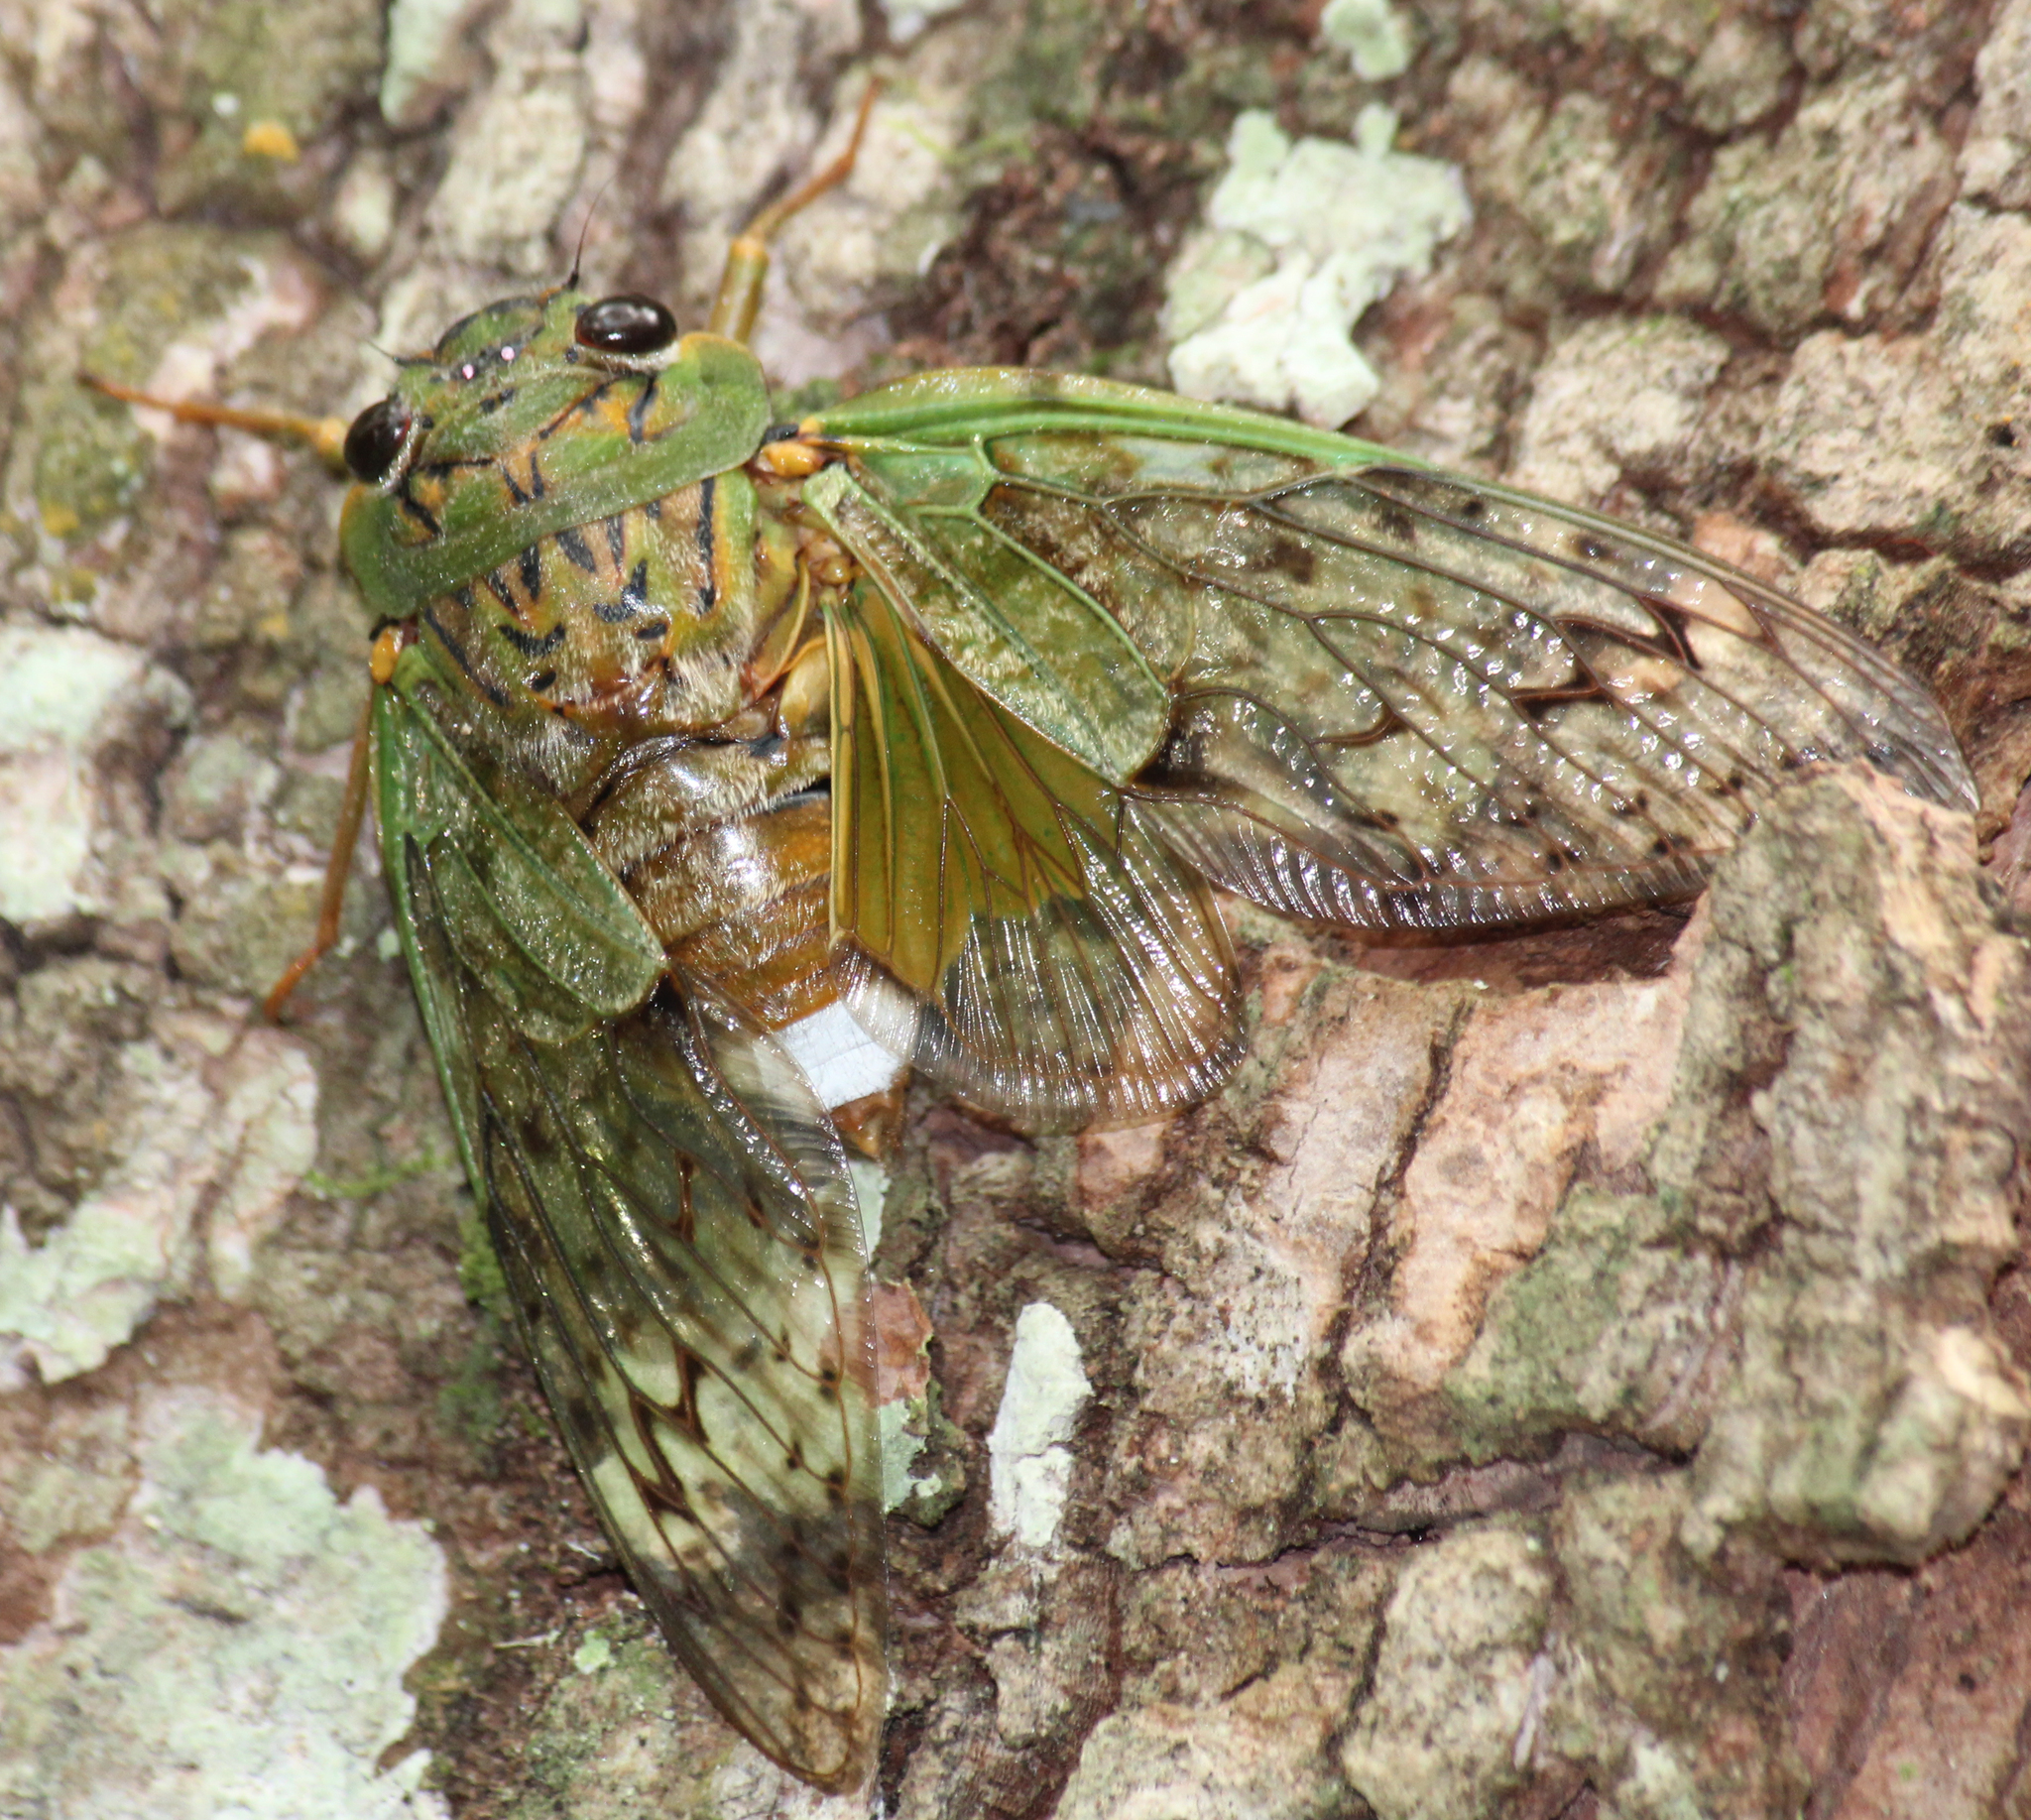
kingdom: Animalia
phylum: Arthropoda
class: Insecta
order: Hemiptera
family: Cicadidae
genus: Dyticopycna
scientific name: Dyticopycna semiclara
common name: Whining forest cicada
